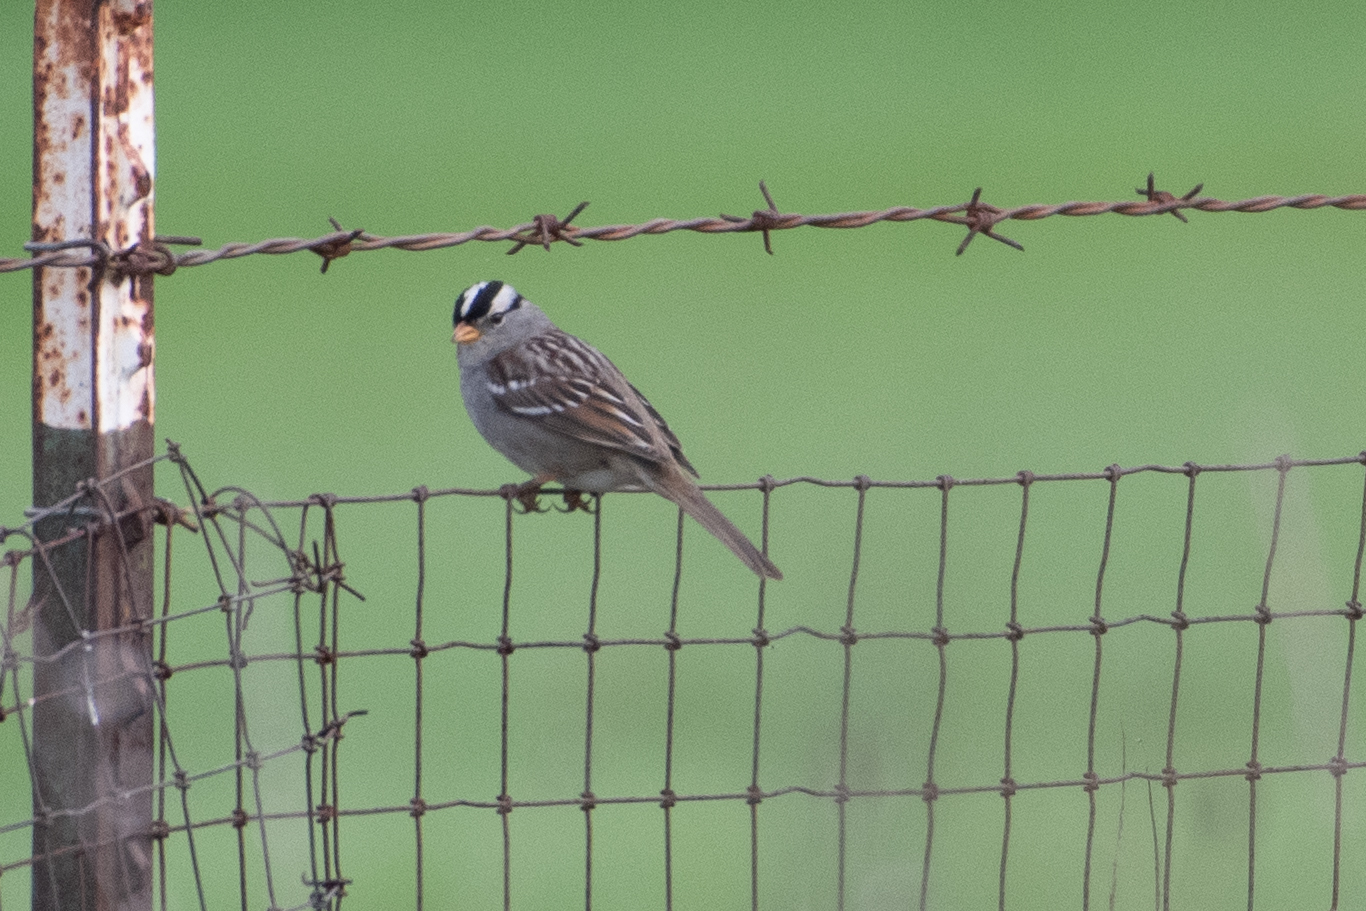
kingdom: Animalia
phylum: Chordata
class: Aves
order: Passeriformes
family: Passerellidae
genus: Zonotrichia
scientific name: Zonotrichia leucophrys
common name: White-crowned sparrow
